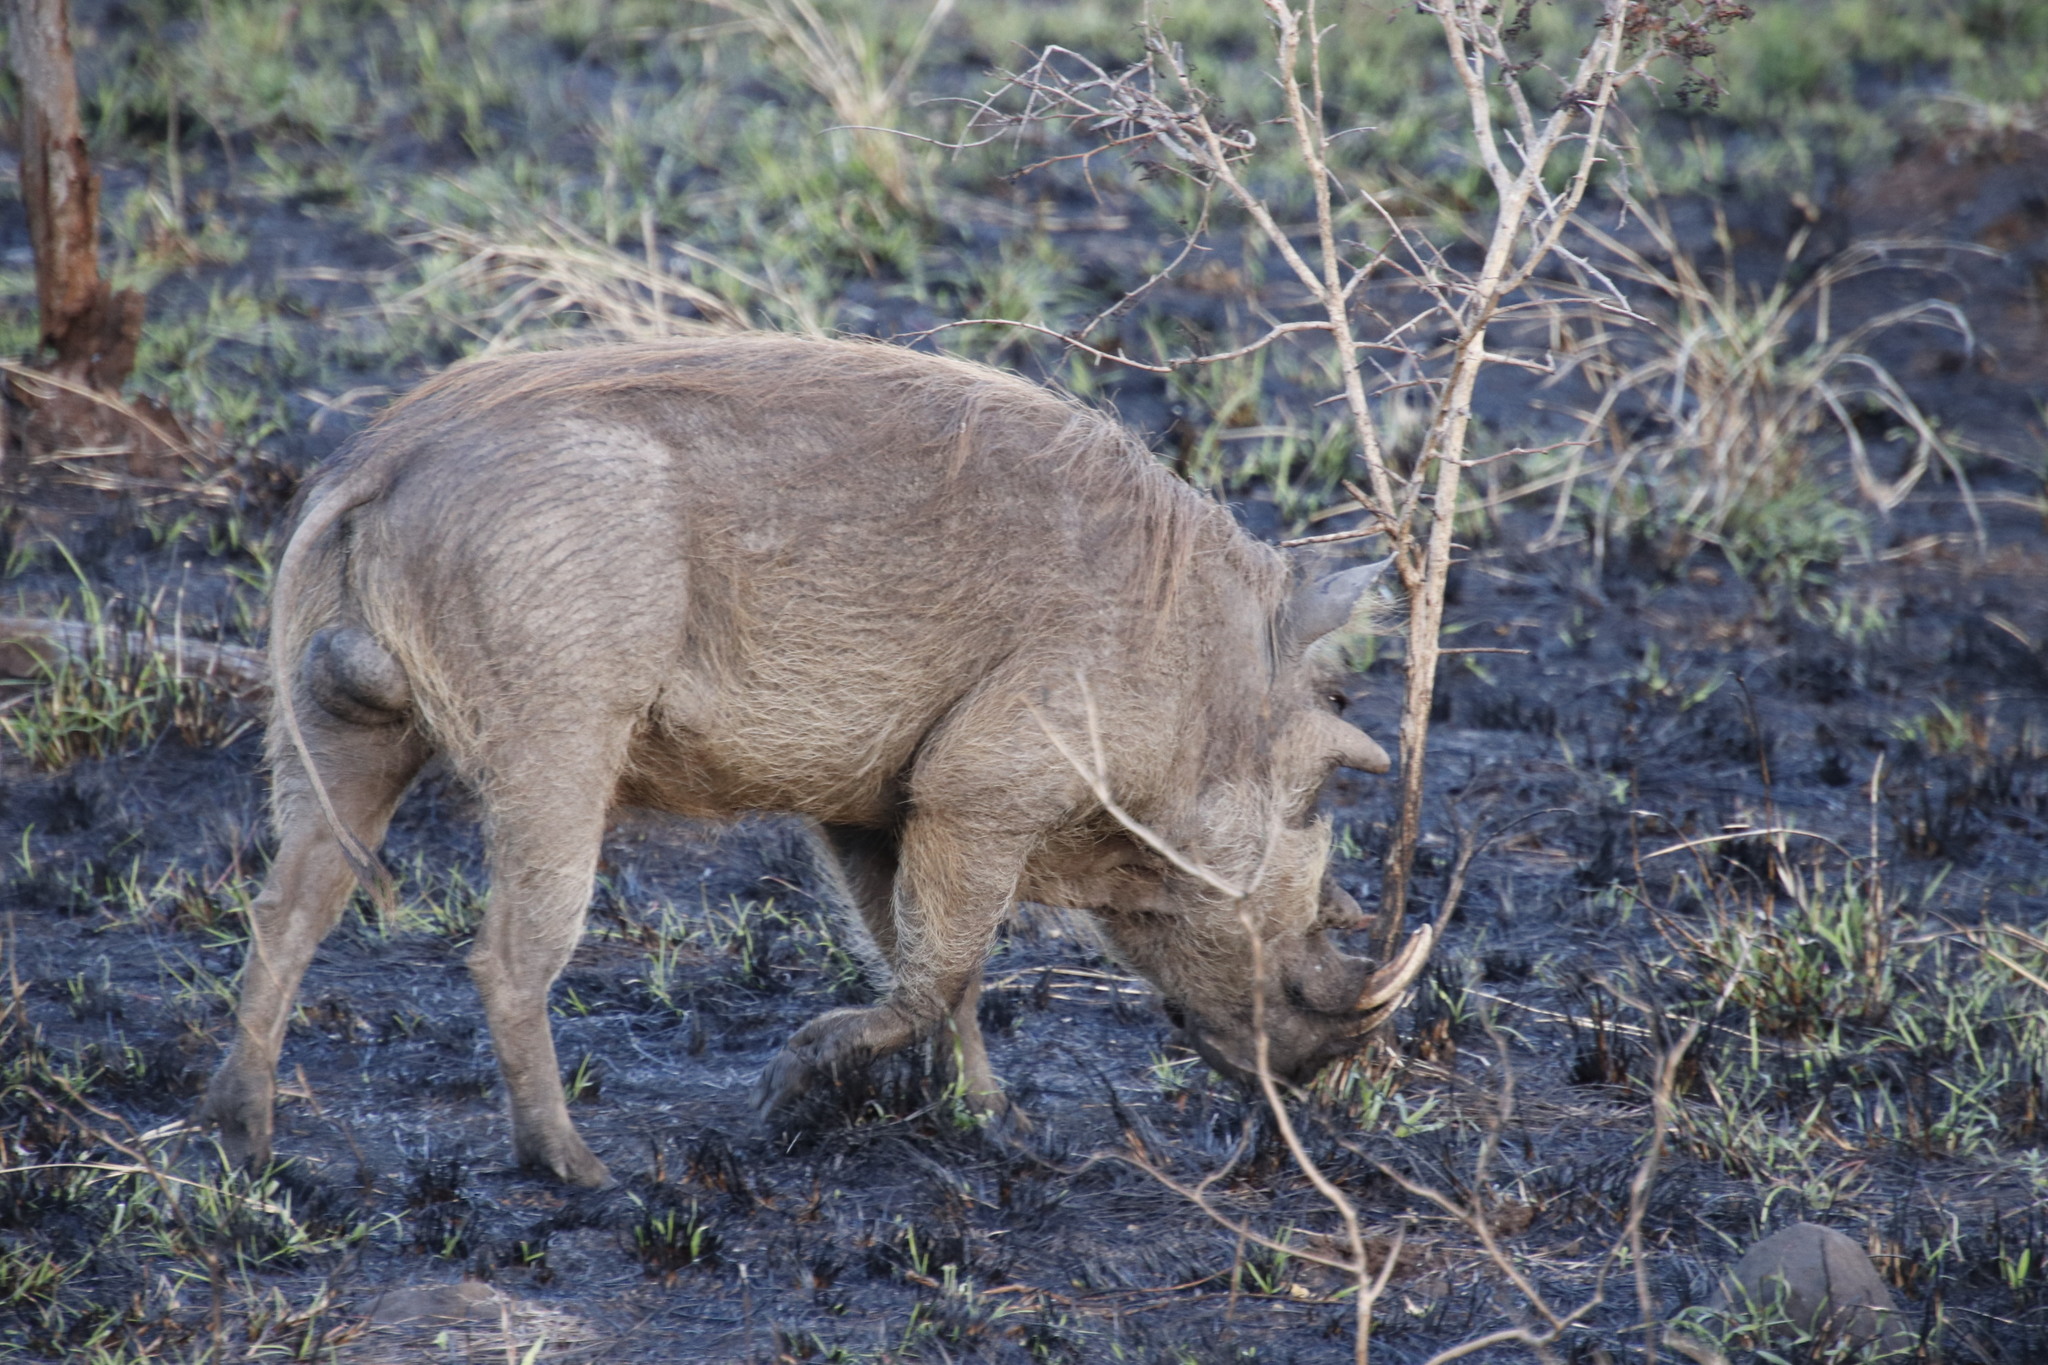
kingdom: Animalia
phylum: Chordata
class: Mammalia
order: Artiodactyla
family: Suidae
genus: Phacochoerus
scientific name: Phacochoerus africanus
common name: Common warthog
